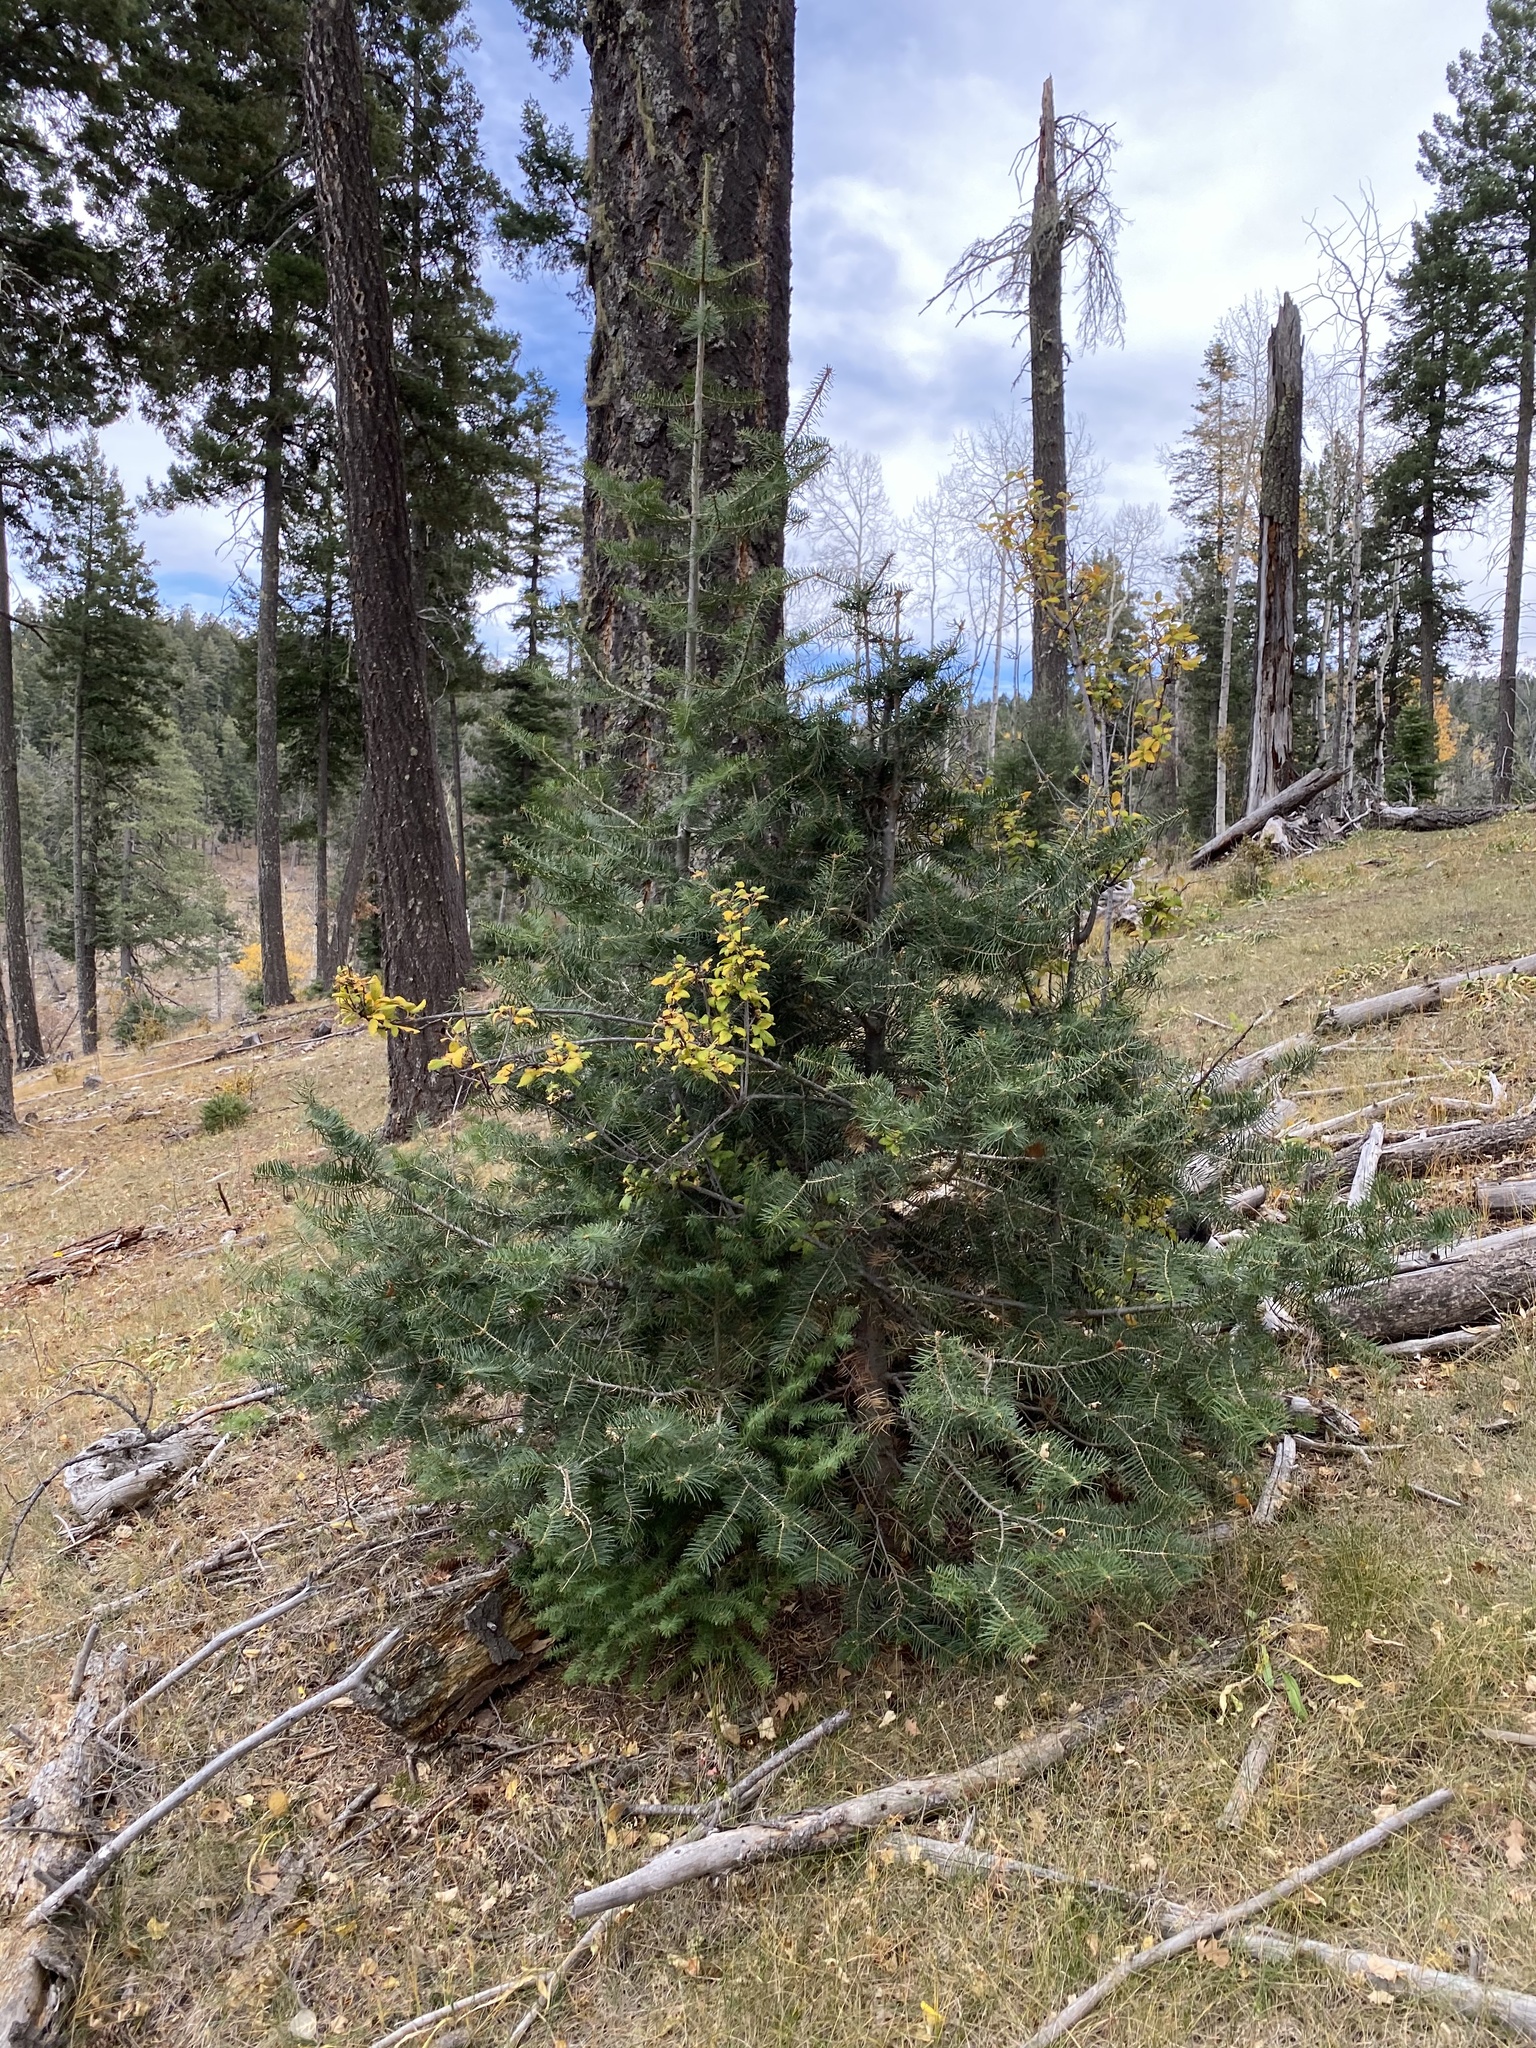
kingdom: Plantae
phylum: Tracheophyta
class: Pinopsida
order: Pinales
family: Pinaceae
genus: Abies
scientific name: Abies concolor
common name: Colorado fir
